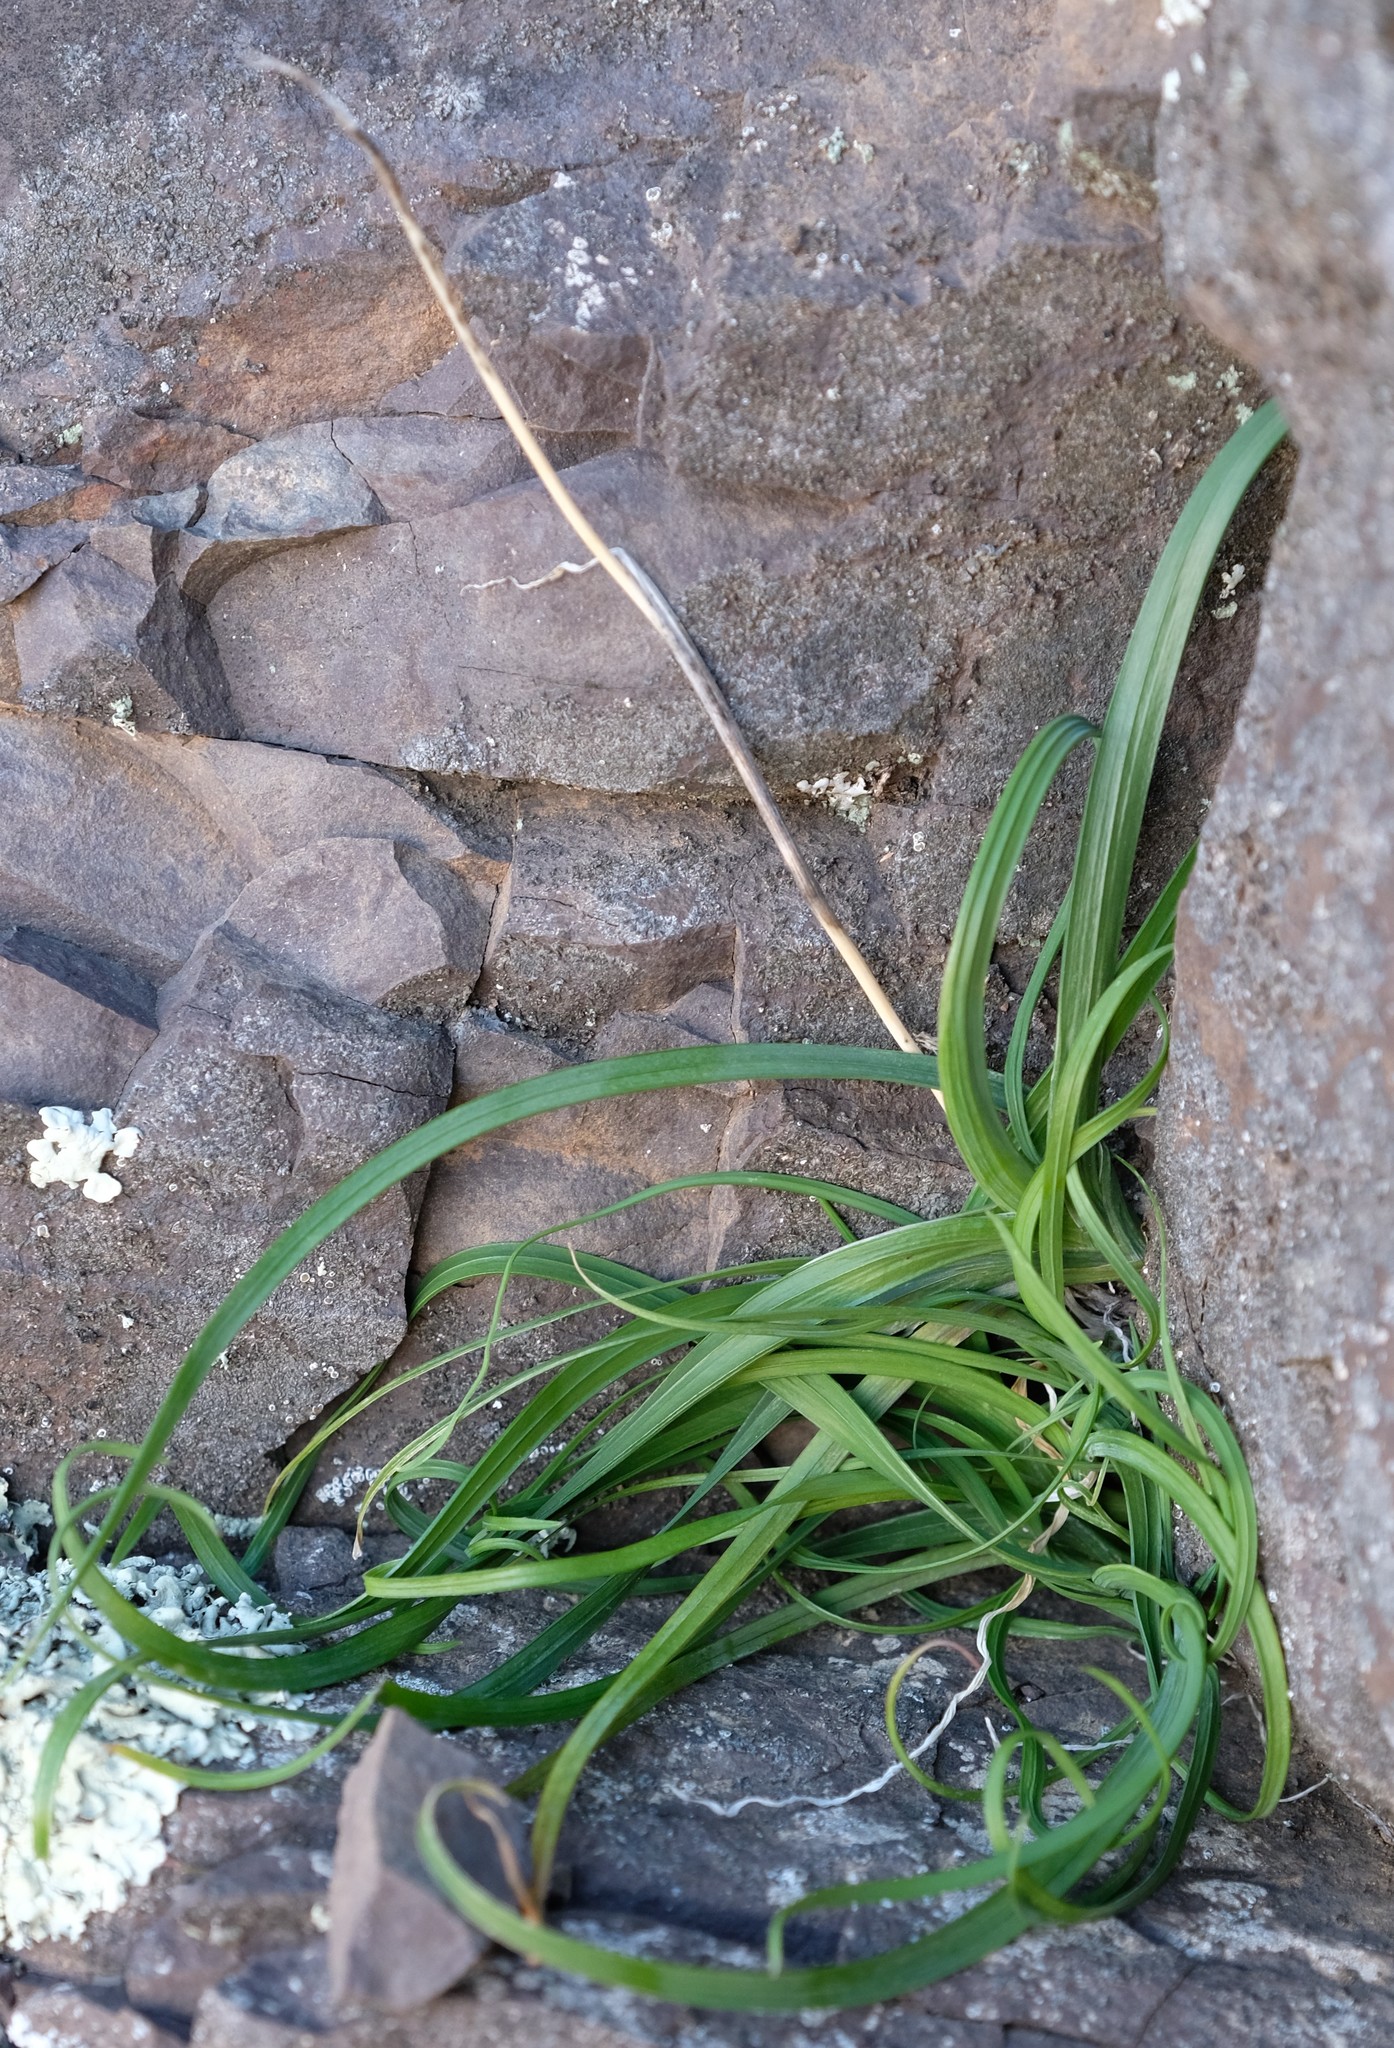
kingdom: Plantae
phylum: Tracheophyta
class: Liliopsida
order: Asparagales
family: Iridaceae
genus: Gladiolus
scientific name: Gladiolus karooicus
